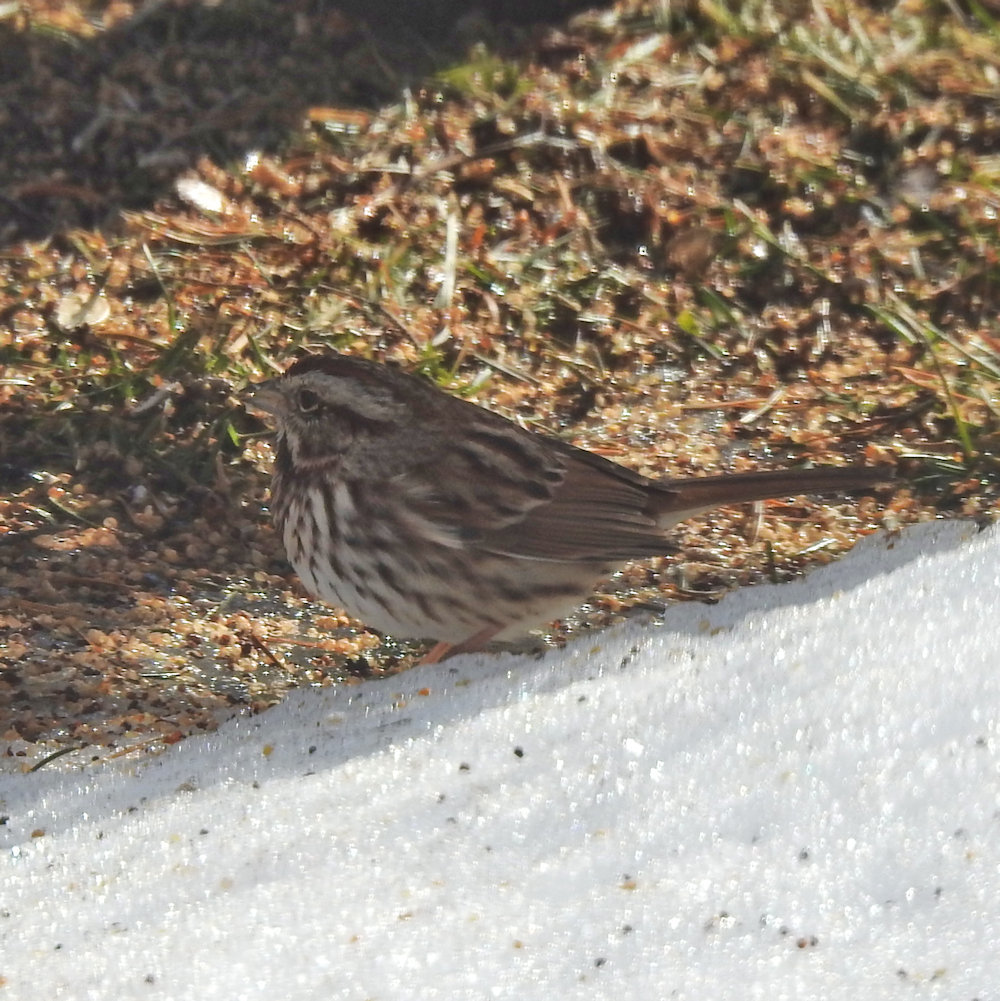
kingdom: Animalia
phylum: Chordata
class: Aves
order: Passeriformes
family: Passerellidae
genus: Melospiza
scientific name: Melospiza melodia
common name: Song sparrow
